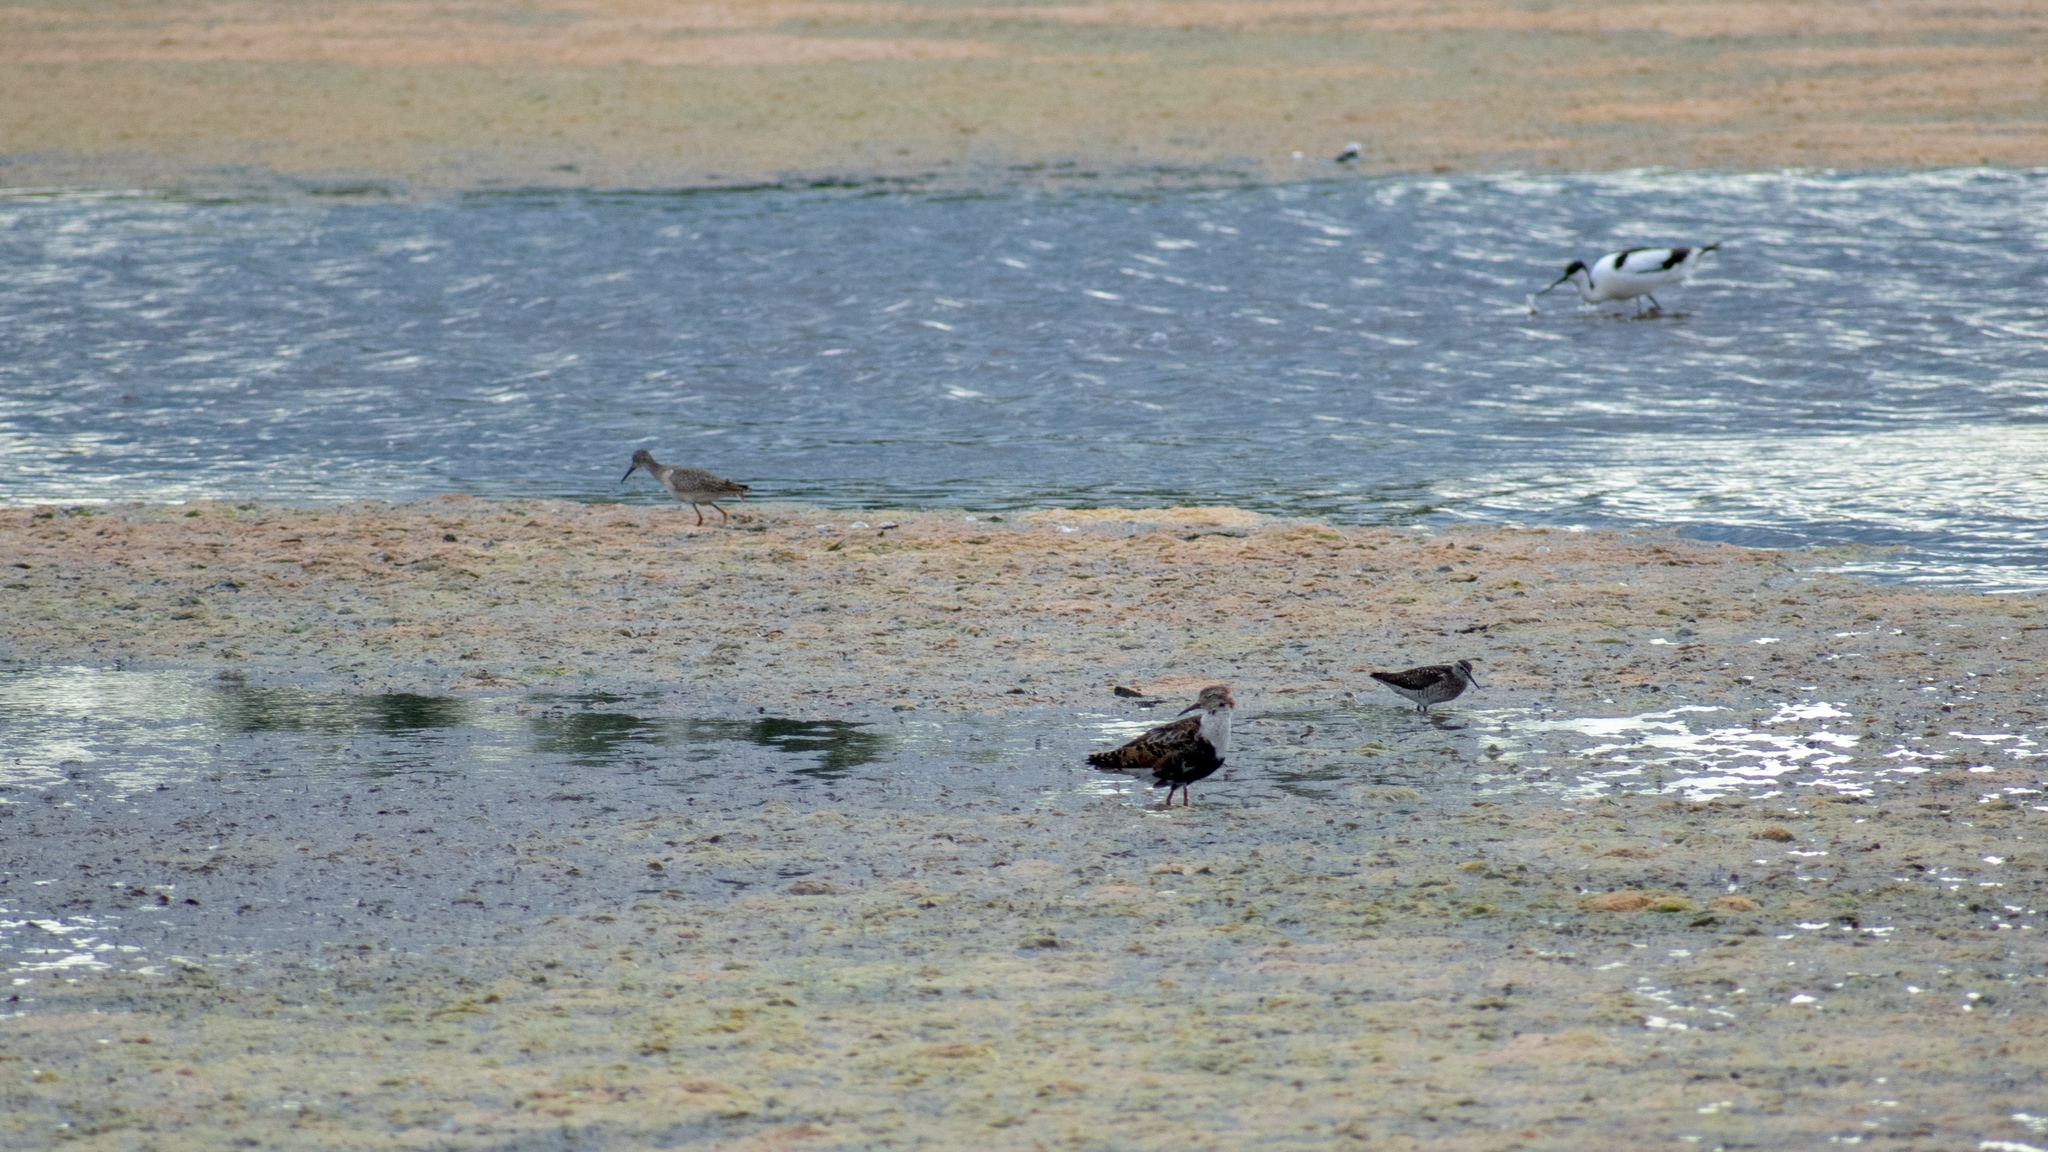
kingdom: Animalia
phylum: Chordata
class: Aves
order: Charadriiformes
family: Recurvirostridae
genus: Recurvirostra
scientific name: Recurvirostra avosetta
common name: Pied avocet
